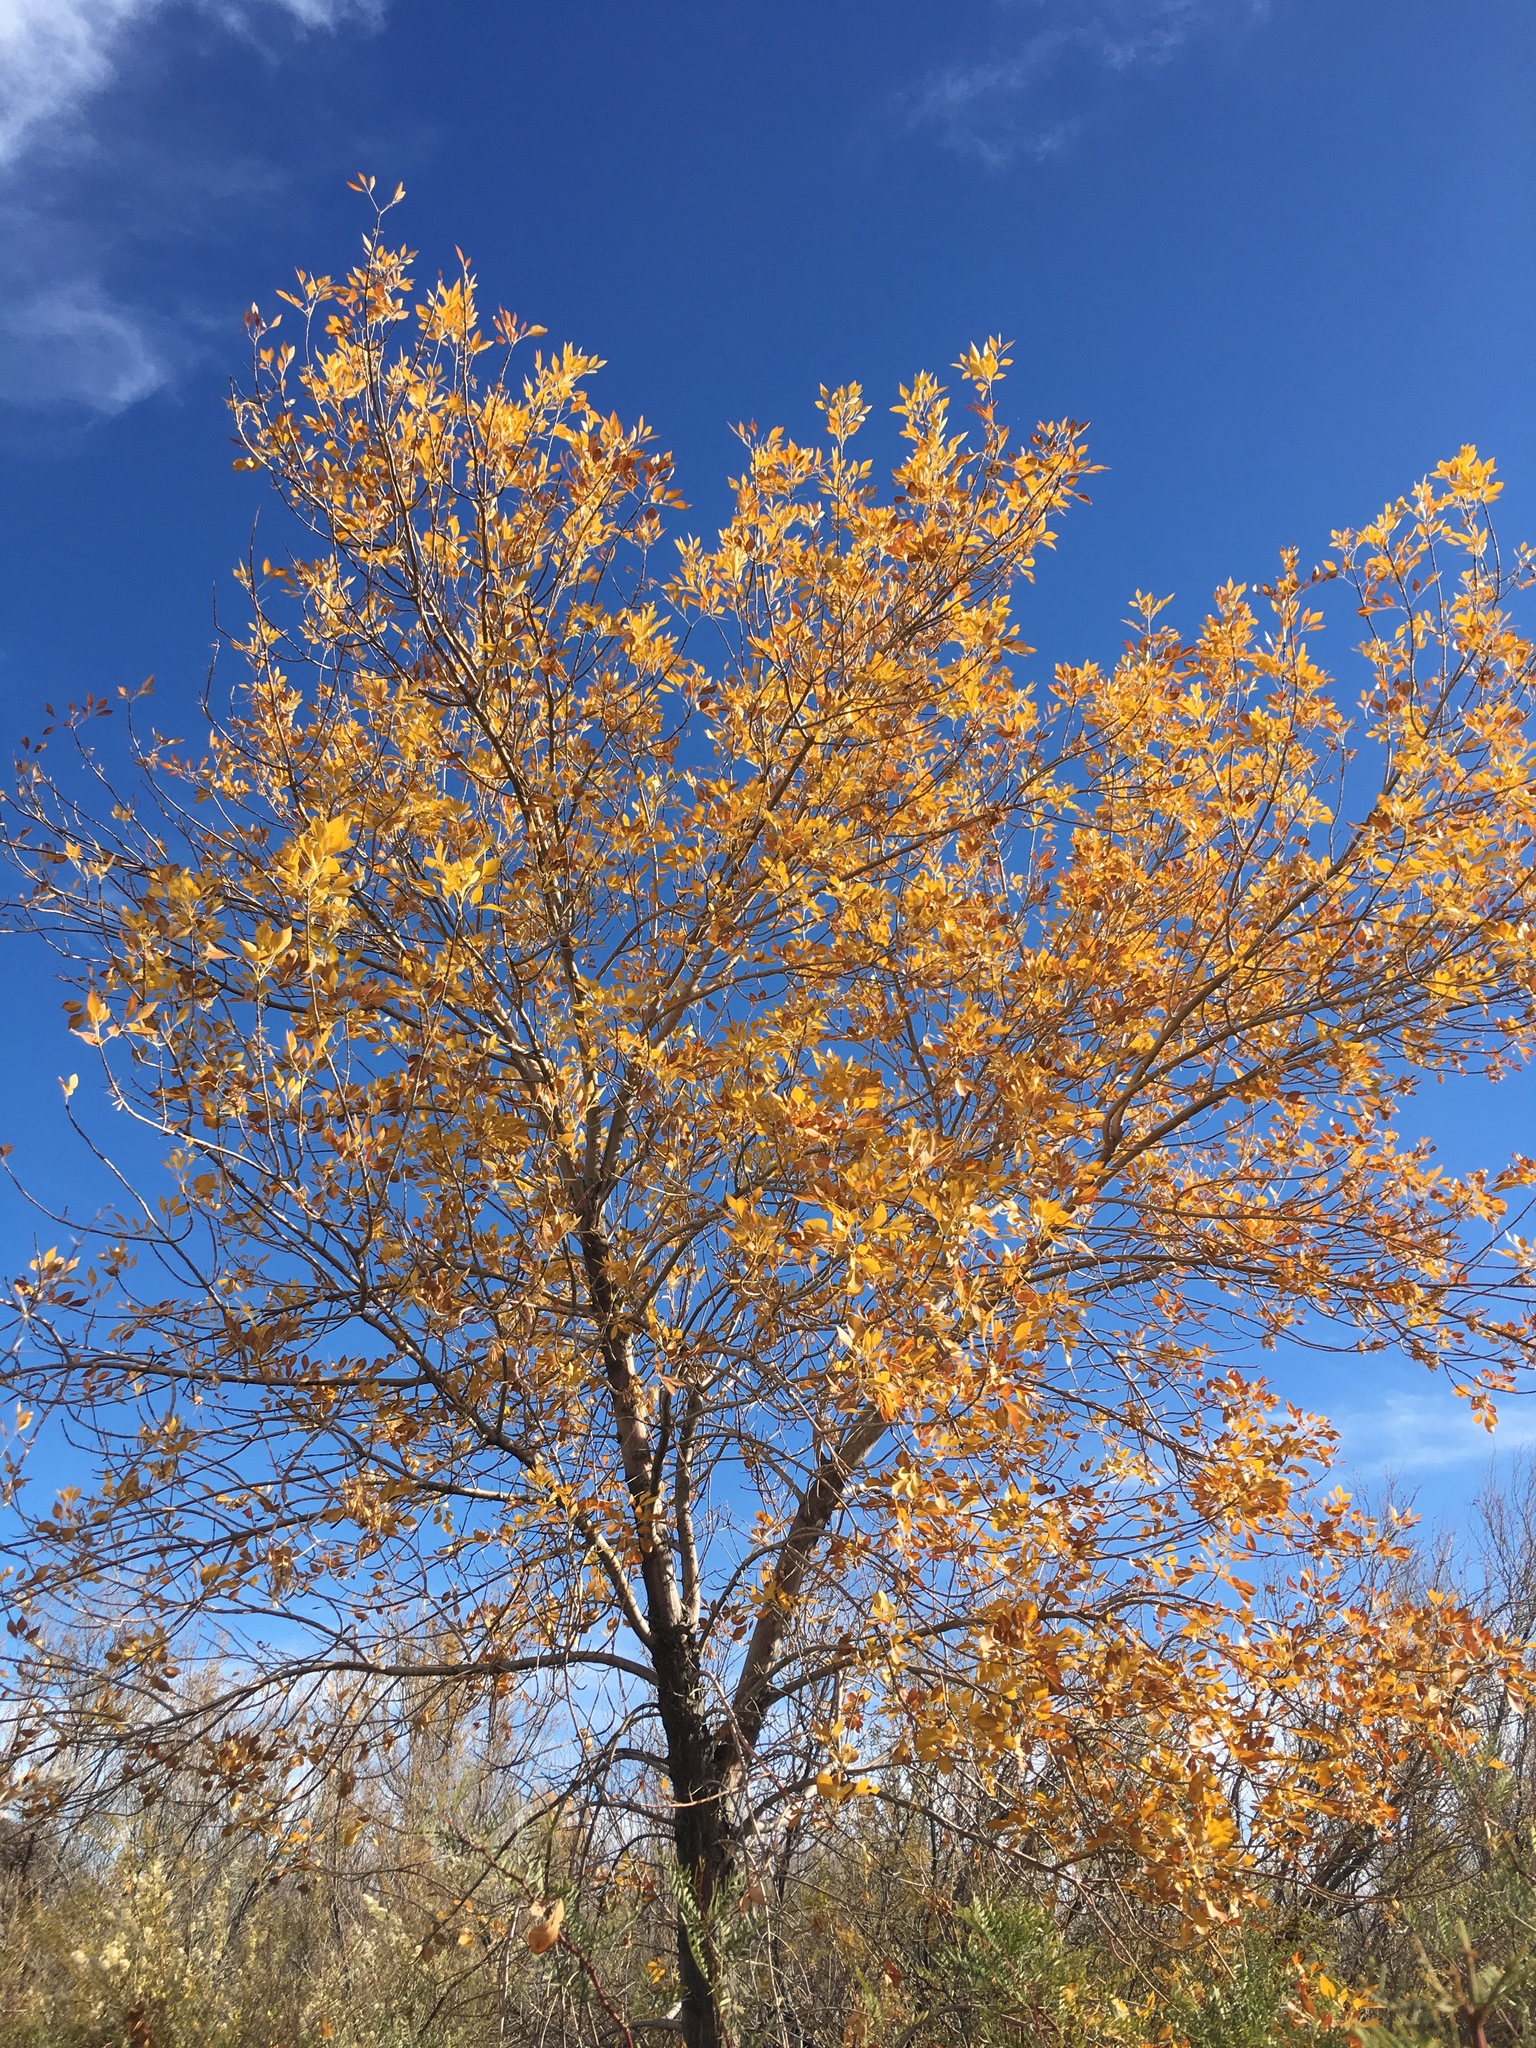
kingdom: Plantae
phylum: Tracheophyta
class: Magnoliopsida
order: Lamiales
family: Oleaceae
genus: Fraxinus
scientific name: Fraxinus velutina
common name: Arizon ash
